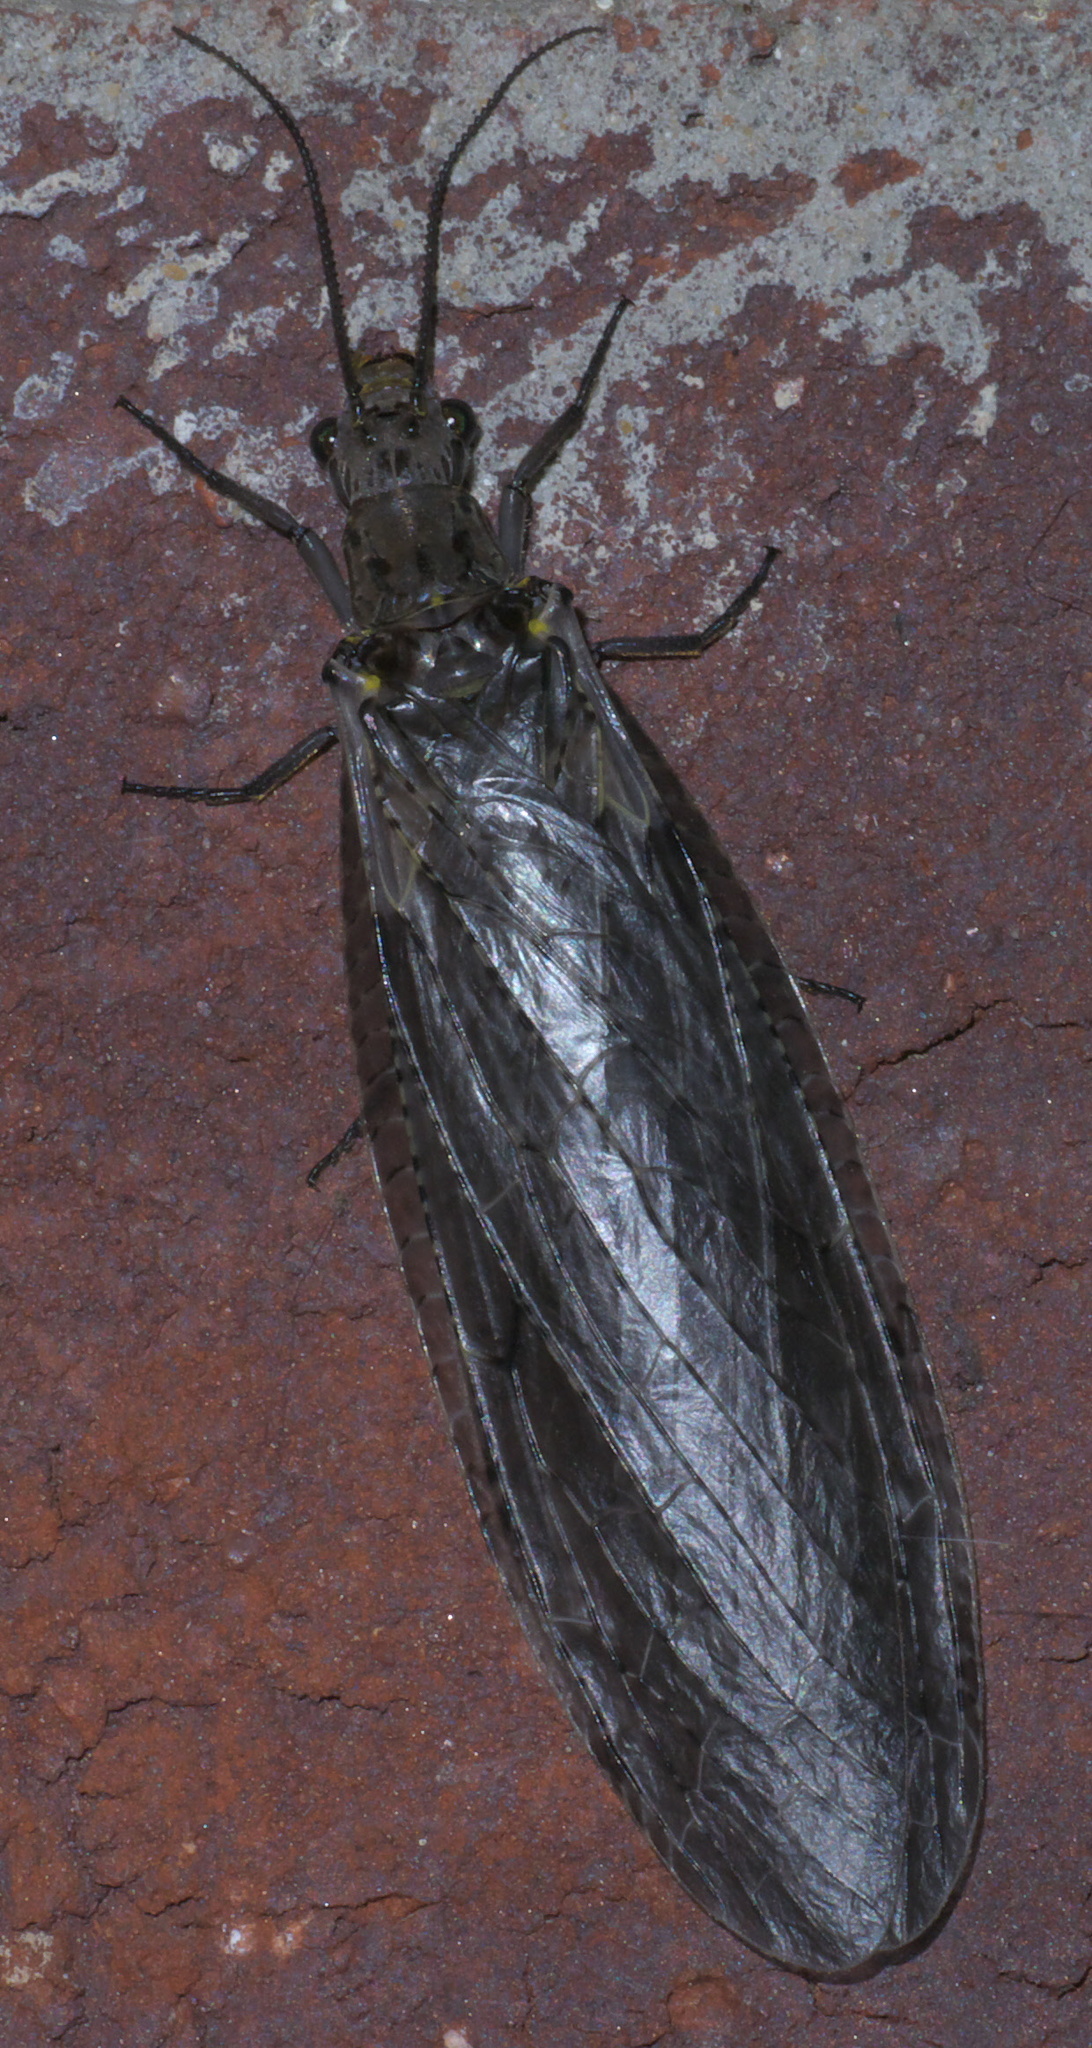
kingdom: Animalia
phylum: Arthropoda
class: Insecta
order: Megaloptera
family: Corydalidae
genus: Chauliodes
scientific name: Chauliodes rastricornis
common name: Spring fishfly
